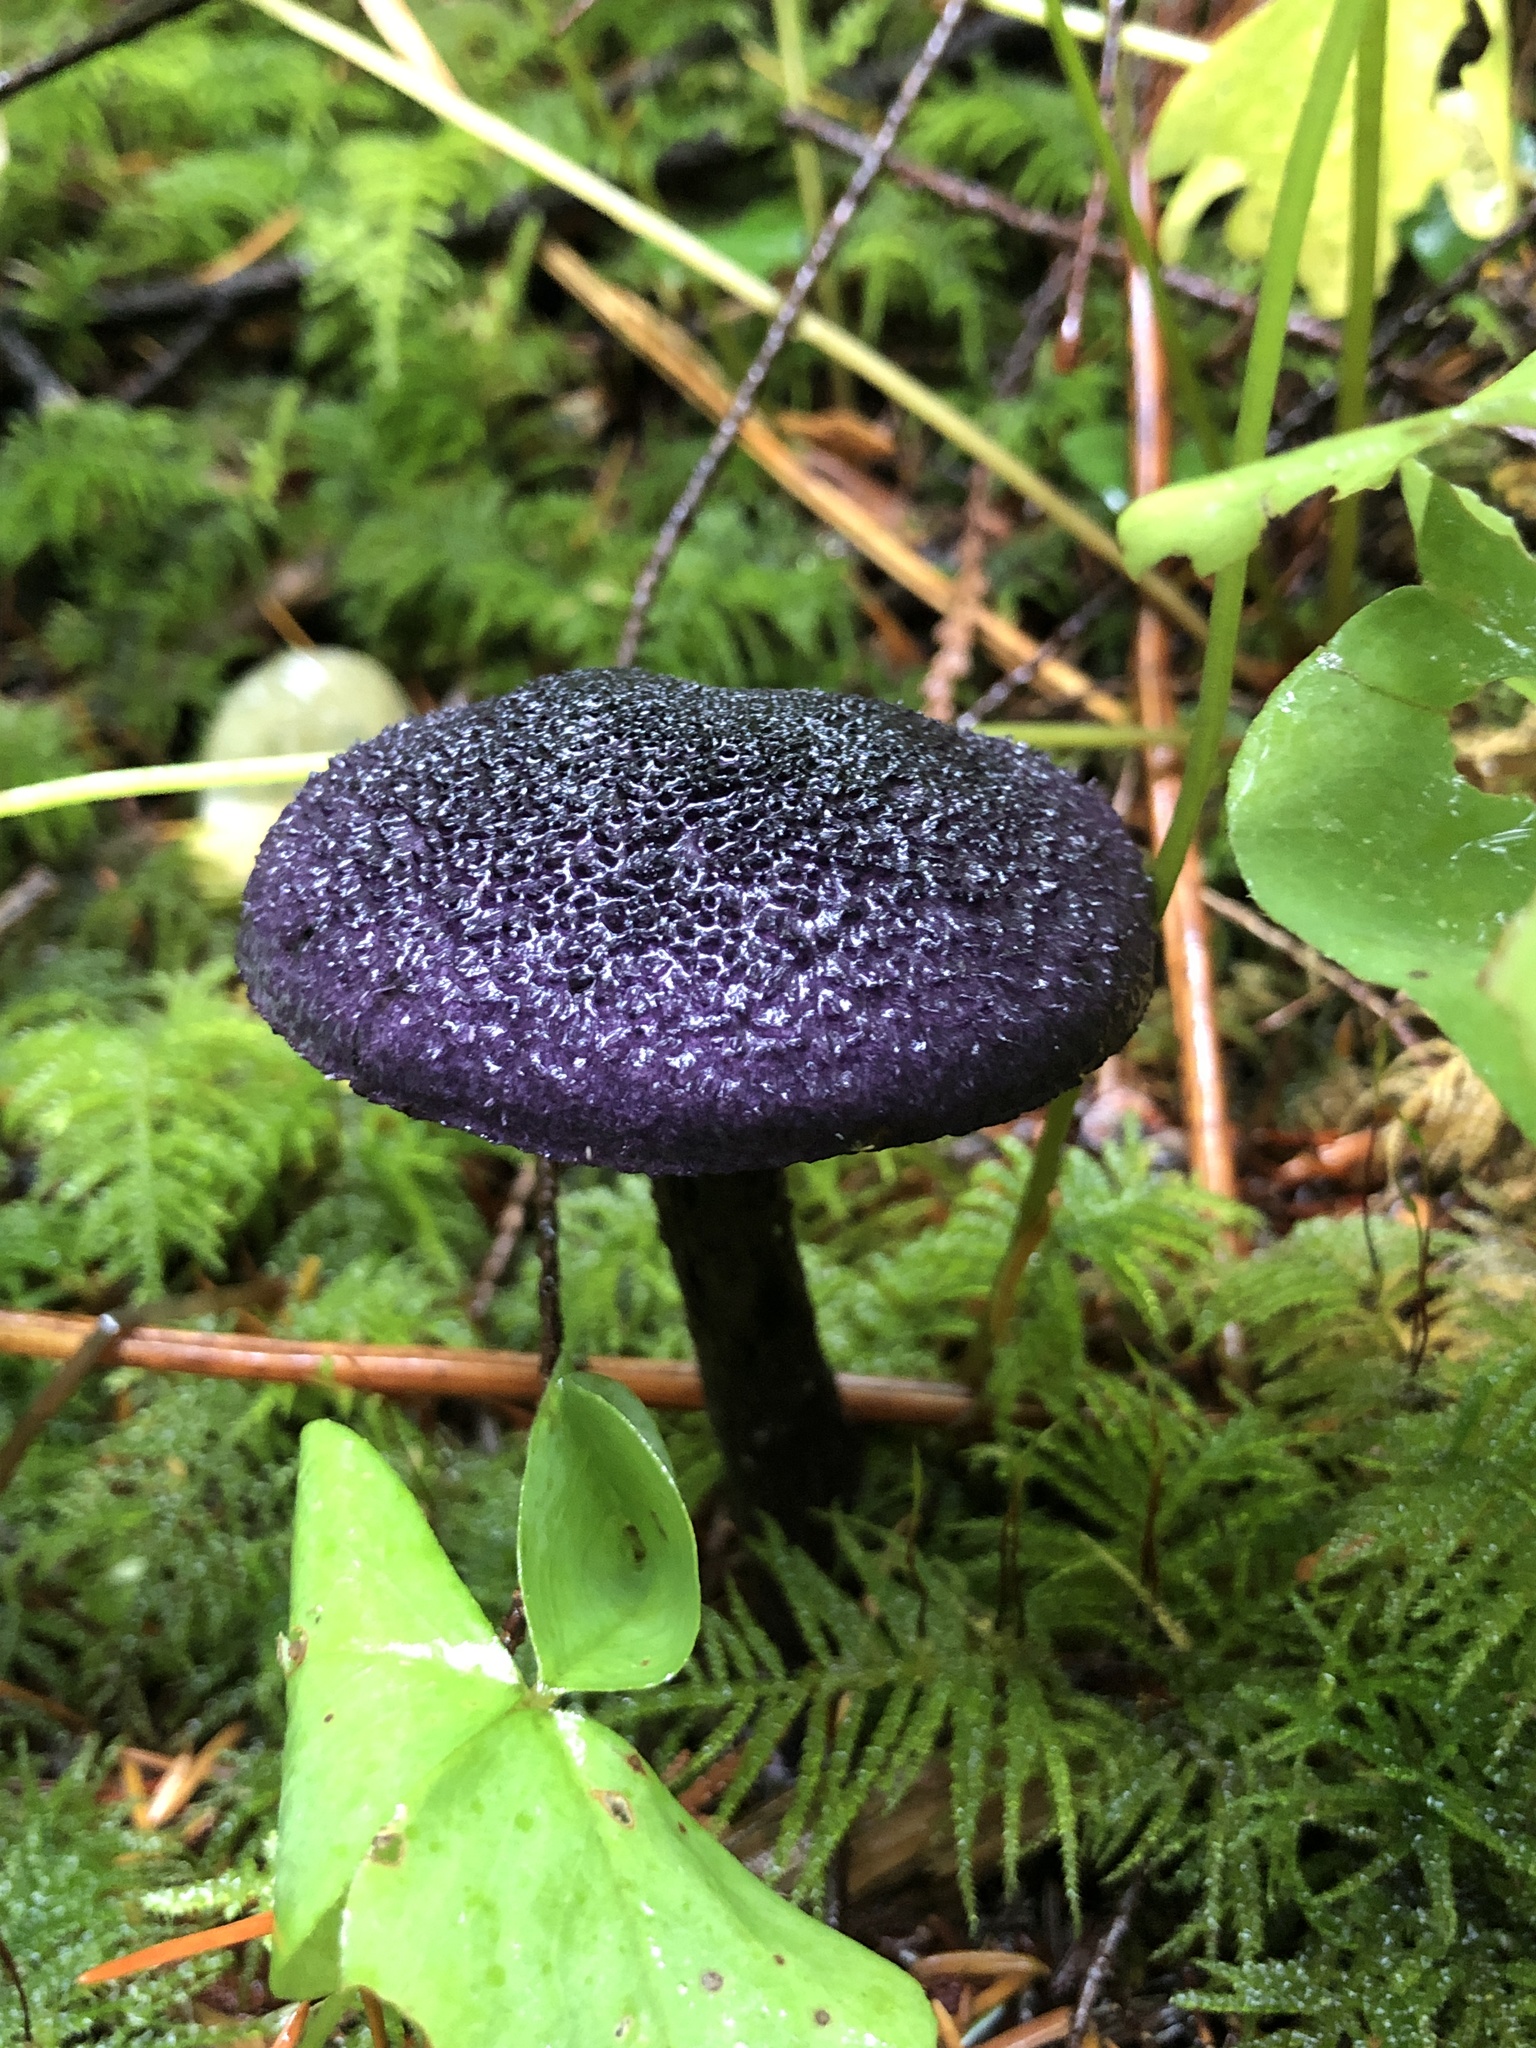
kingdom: Fungi
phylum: Basidiomycota
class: Agaricomycetes
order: Agaricales
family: Cortinariaceae
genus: Cortinarius
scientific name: Cortinarius violaceus
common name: Violet webcap
